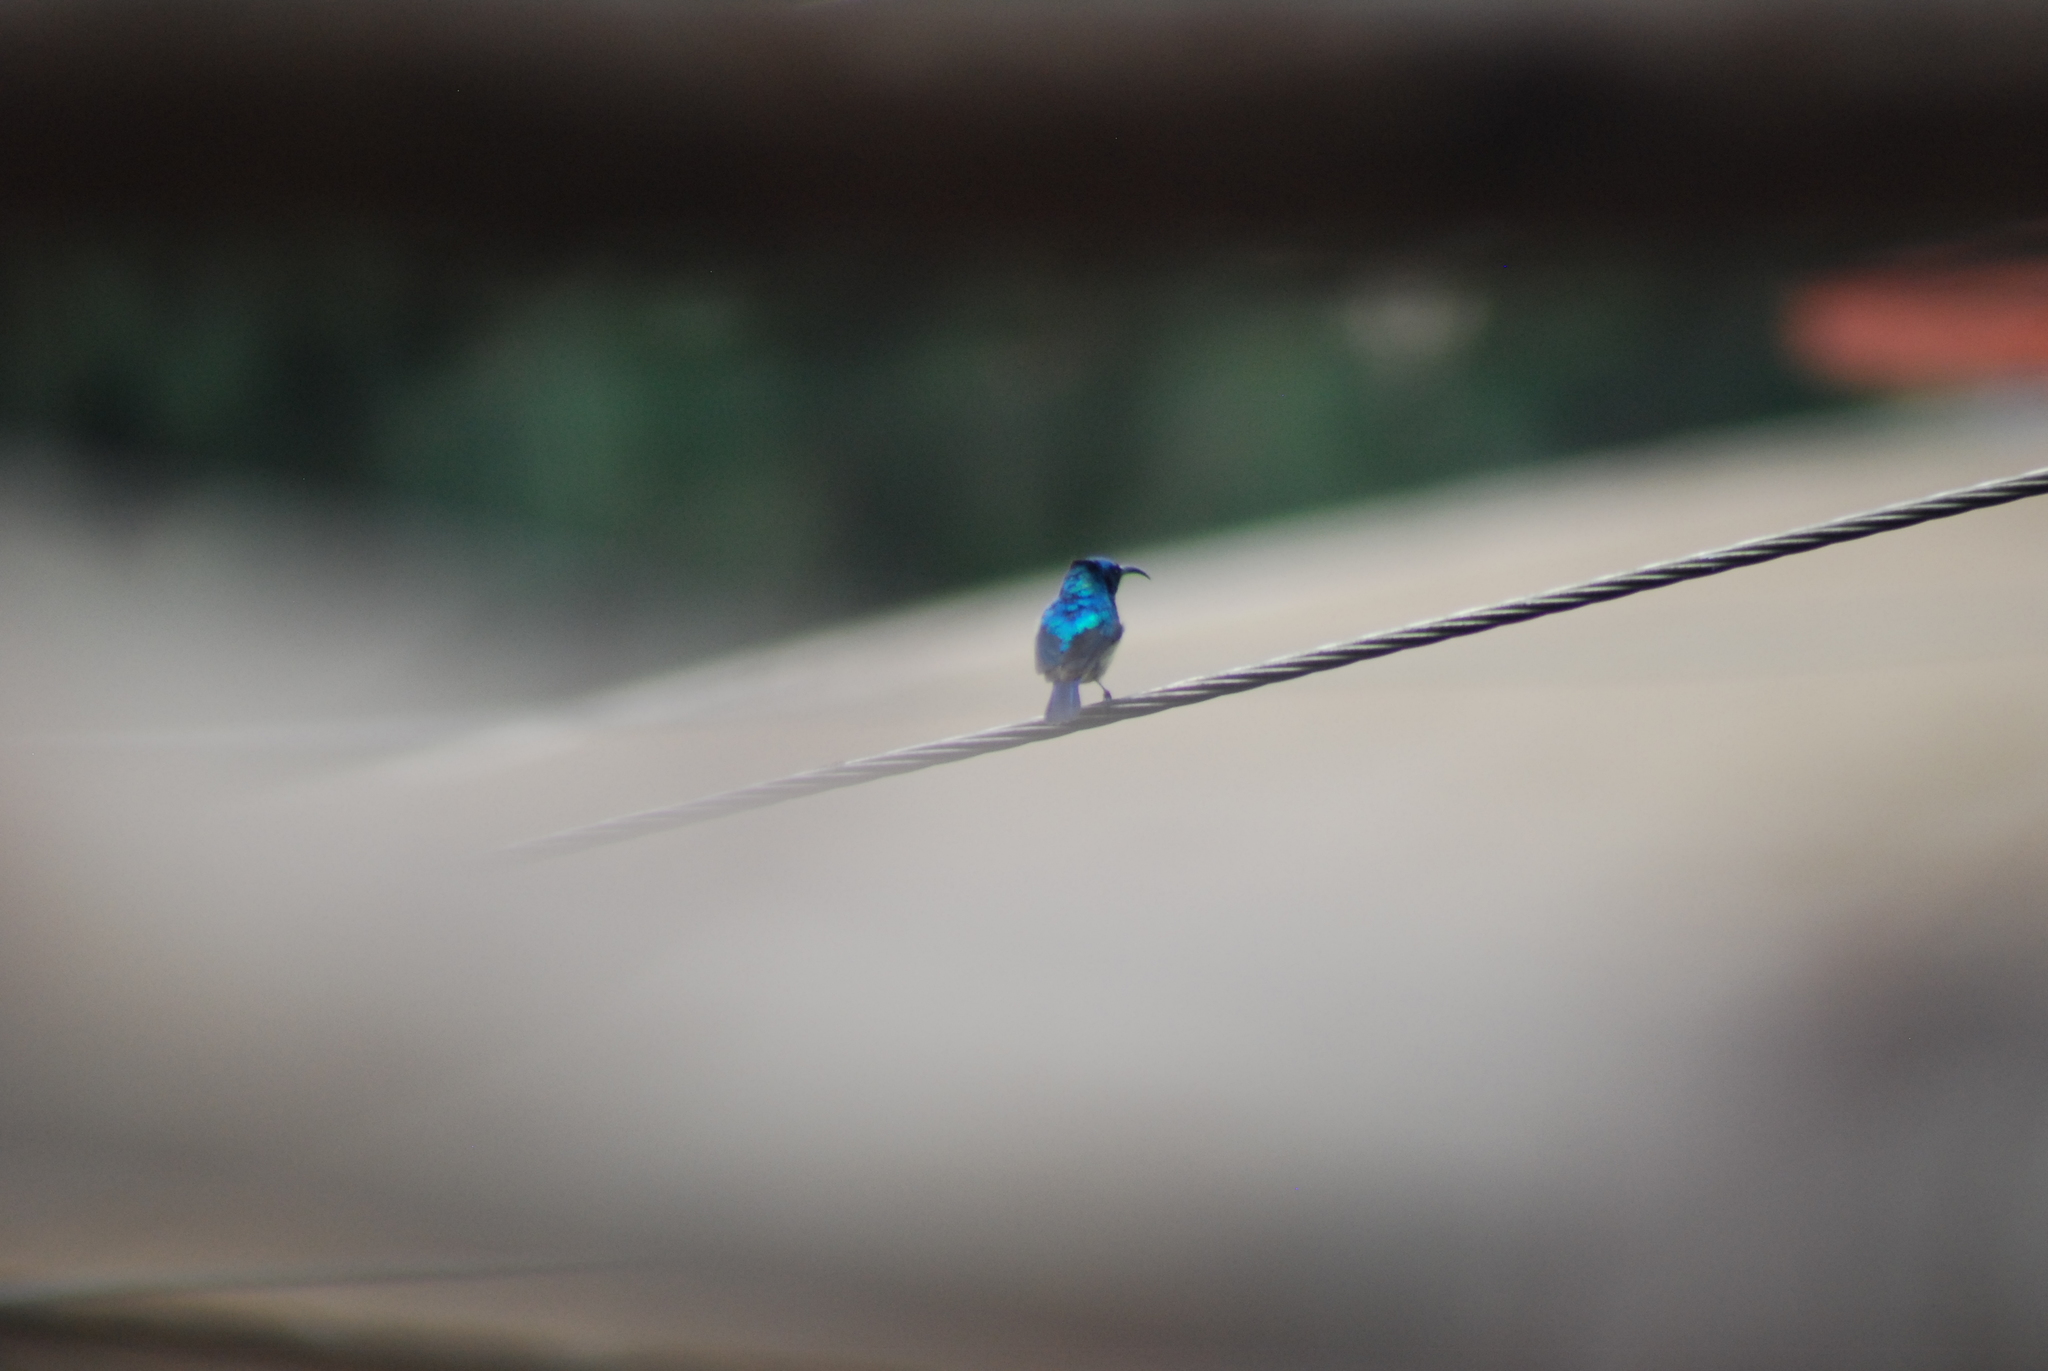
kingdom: Animalia
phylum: Chordata
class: Aves
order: Passeriformes
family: Nectariniidae
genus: Cinnyris
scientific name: Cinnyris venustus
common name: Variable sunbird
